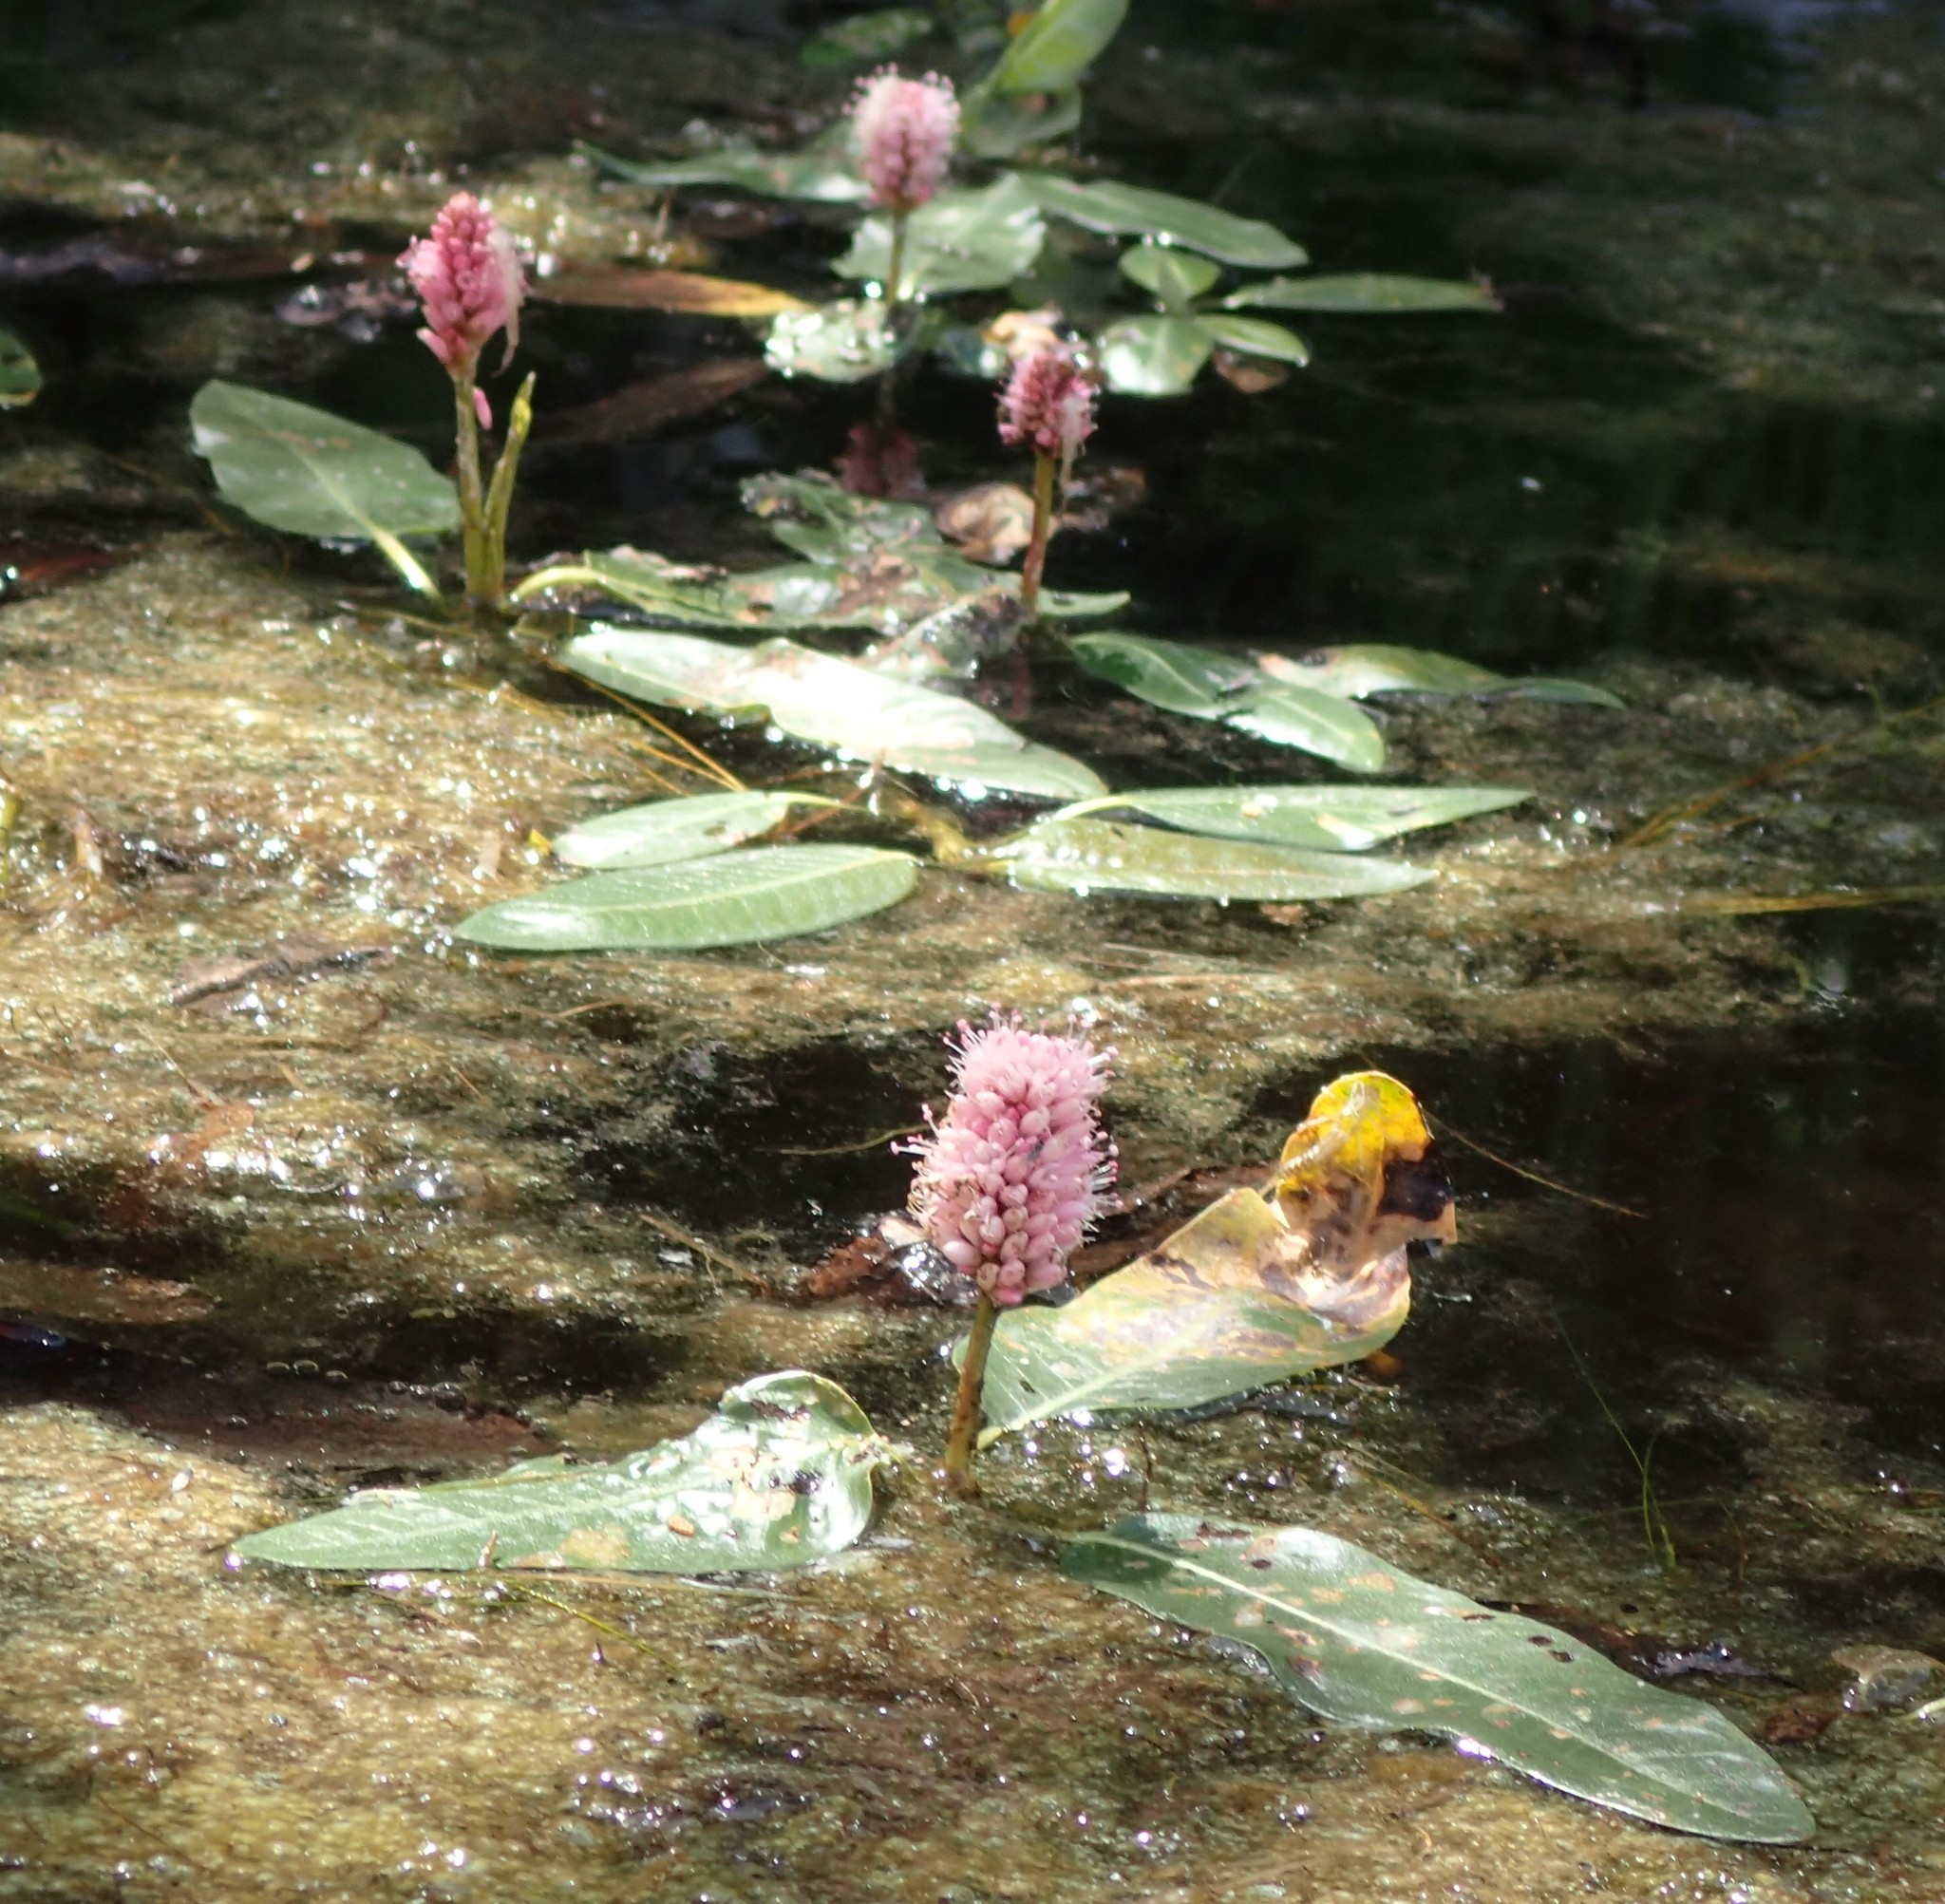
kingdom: Plantae
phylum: Tracheophyta
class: Magnoliopsida
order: Caryophyllales
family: Polygonaceae
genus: Persicaria
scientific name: Persicaria amphibia
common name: Amphibious bistort
